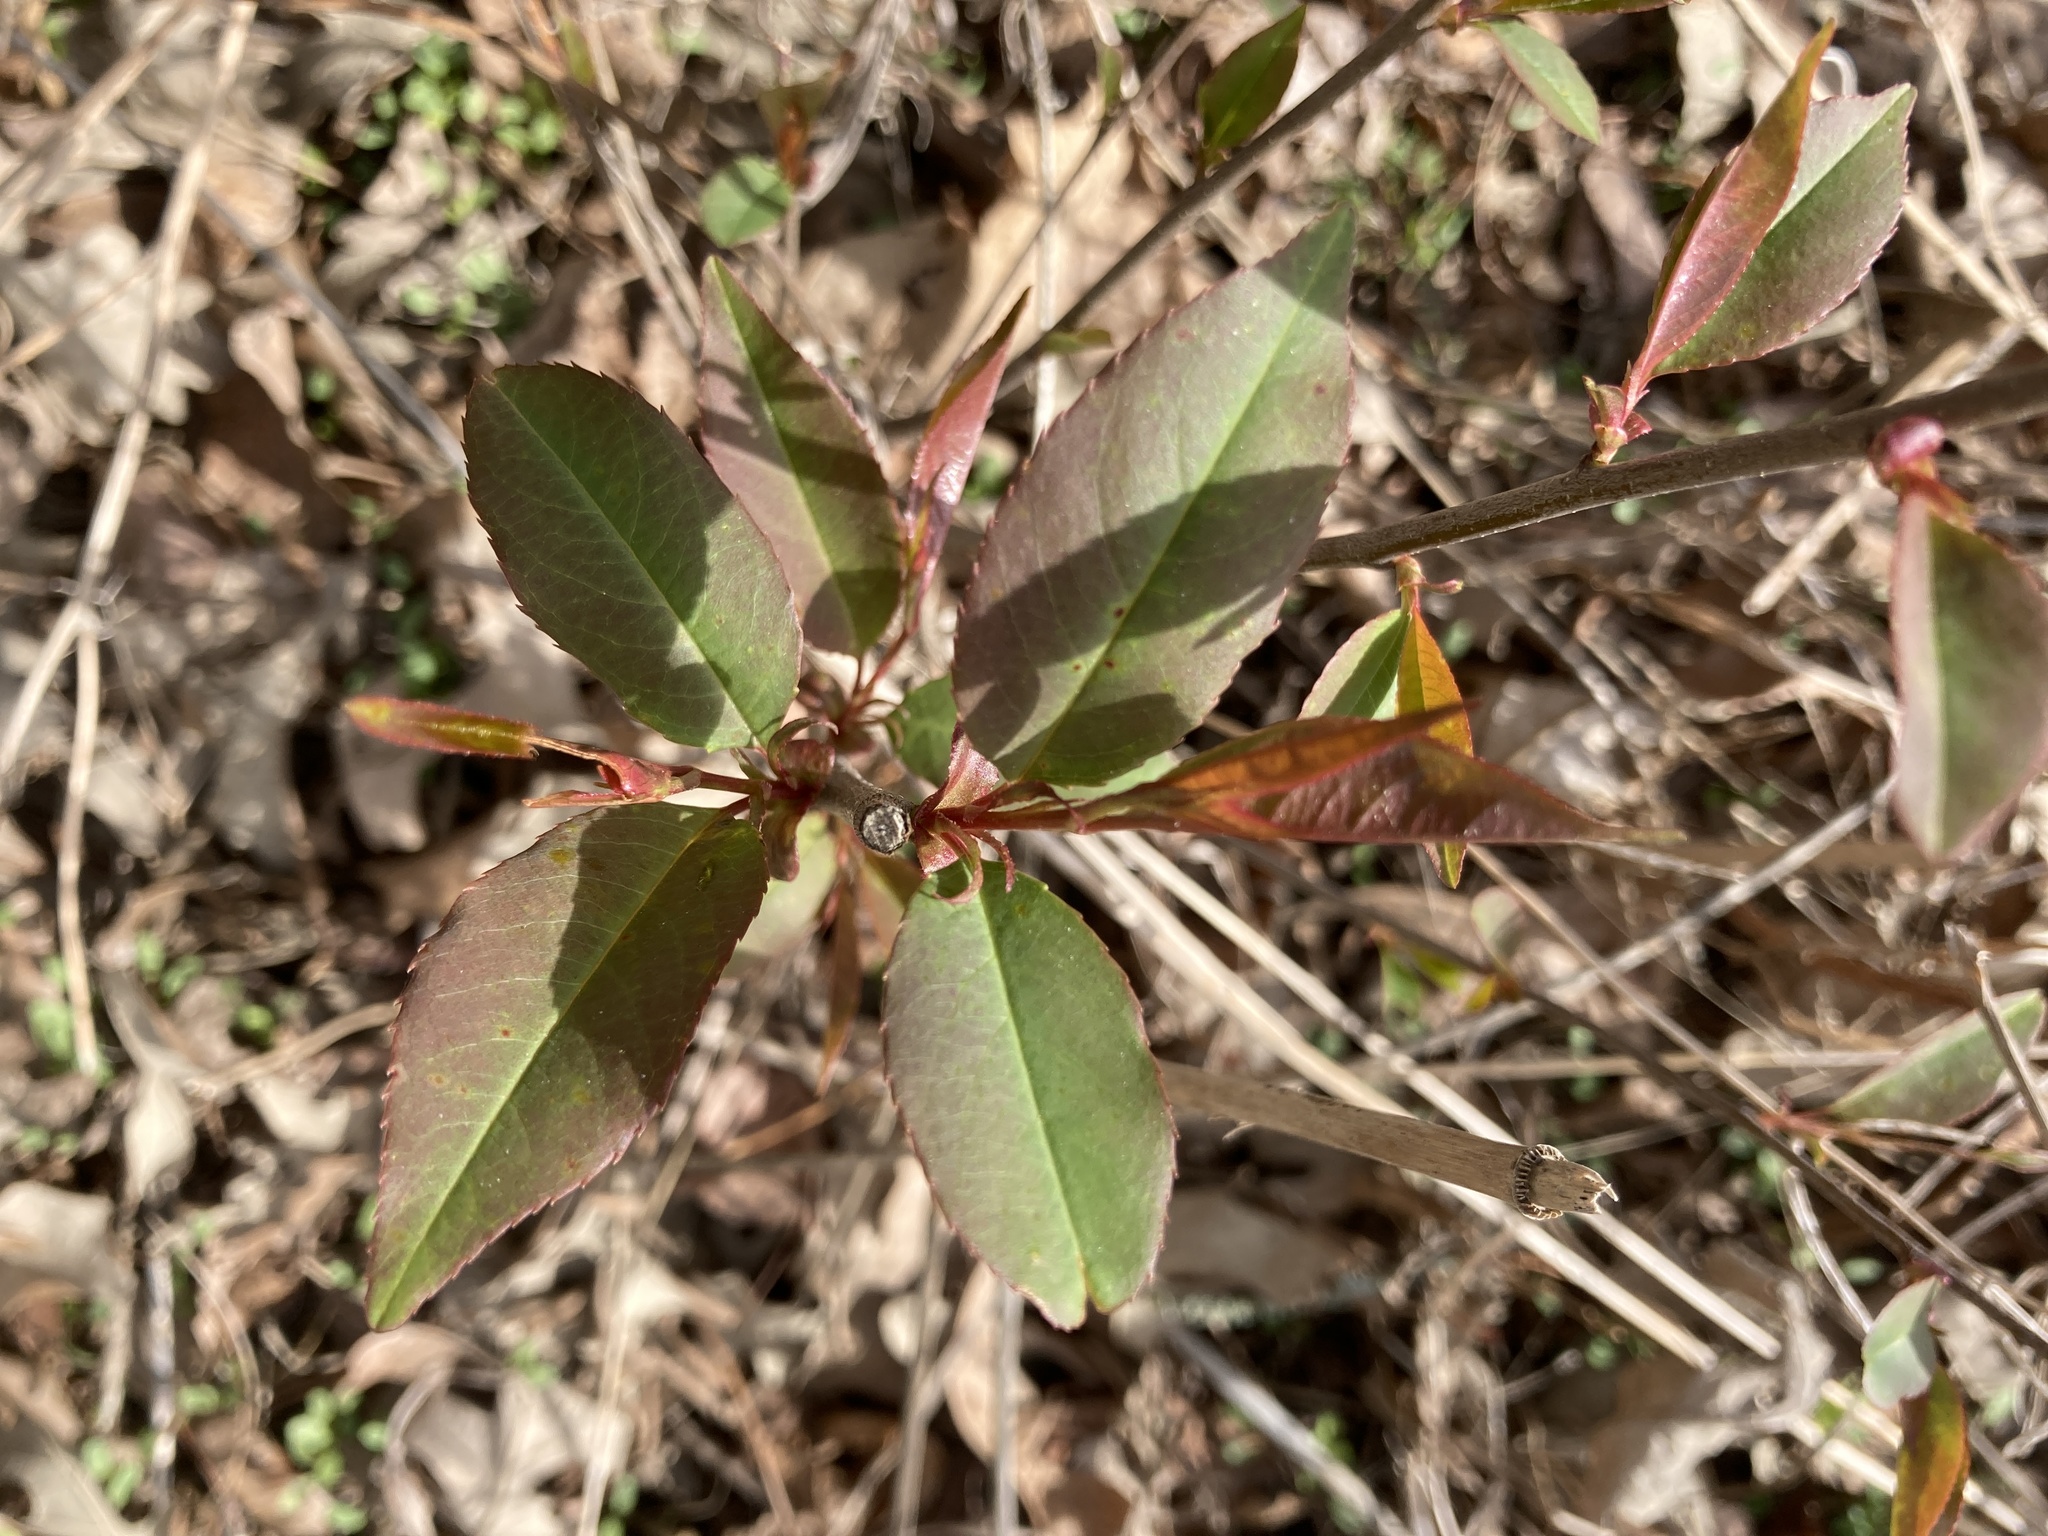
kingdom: Plantae
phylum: Tracheophyta
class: Magnoliopsida
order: Rosales
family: Rosaceae
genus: Prunus
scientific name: Prunus serotina
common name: Black cherry
